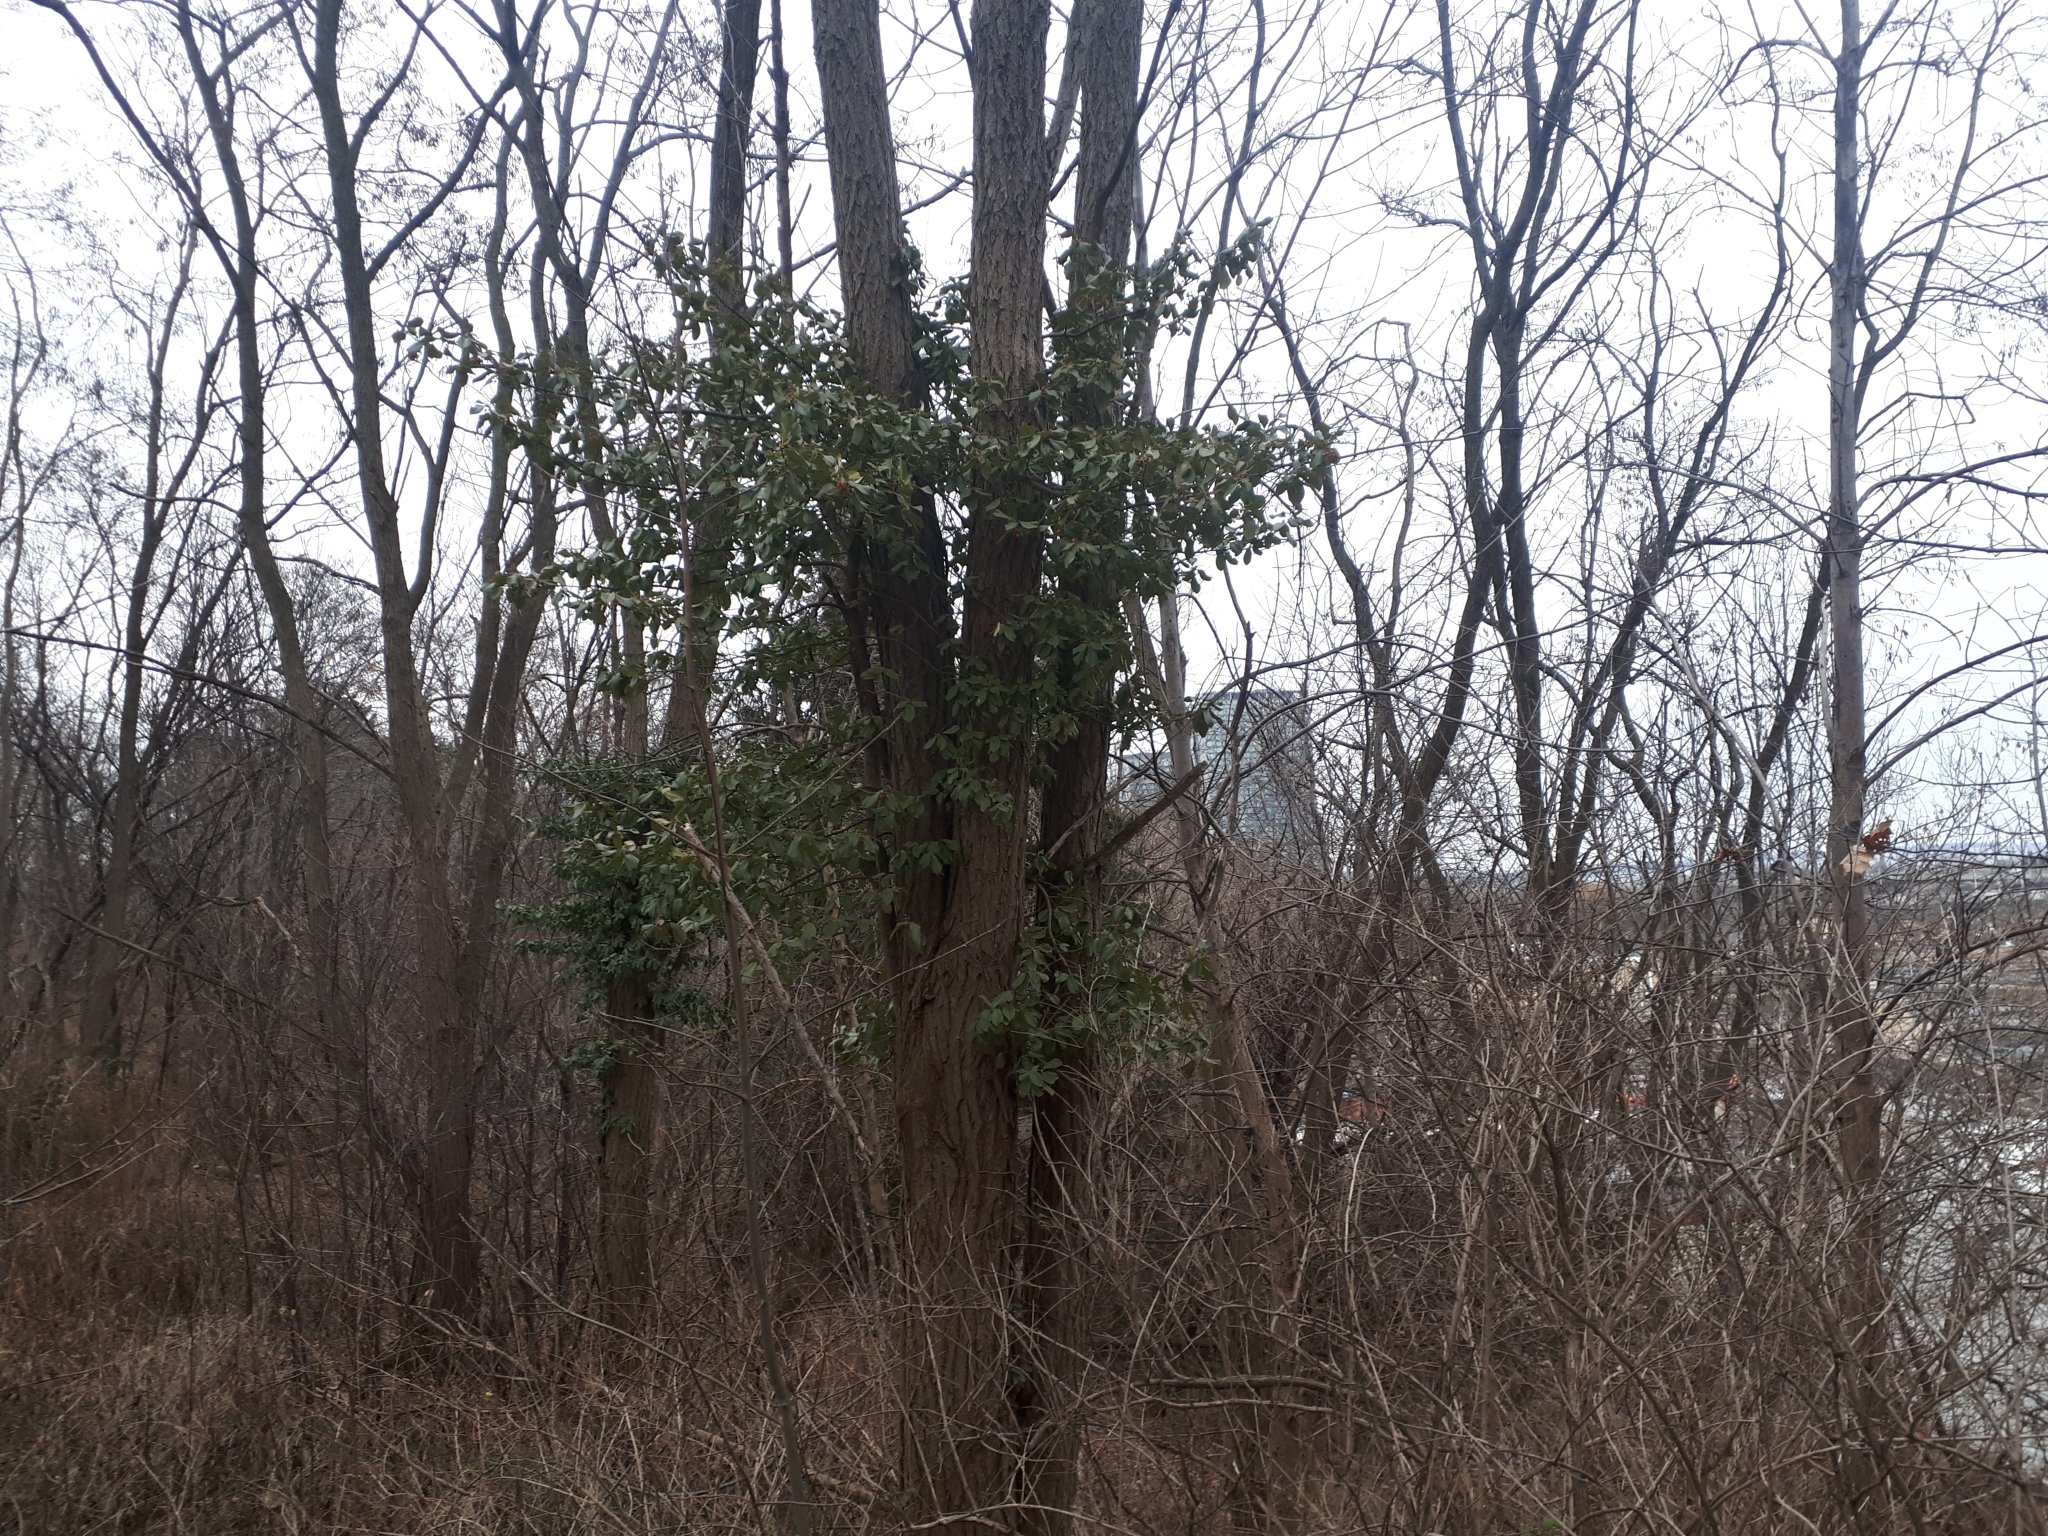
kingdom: Plantae
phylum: Tracheophyta
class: Magnoliopsida
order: Celastrales
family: Celastraceae
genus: Euonymus
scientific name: Euonymus fortunei
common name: Climbing euonymus
